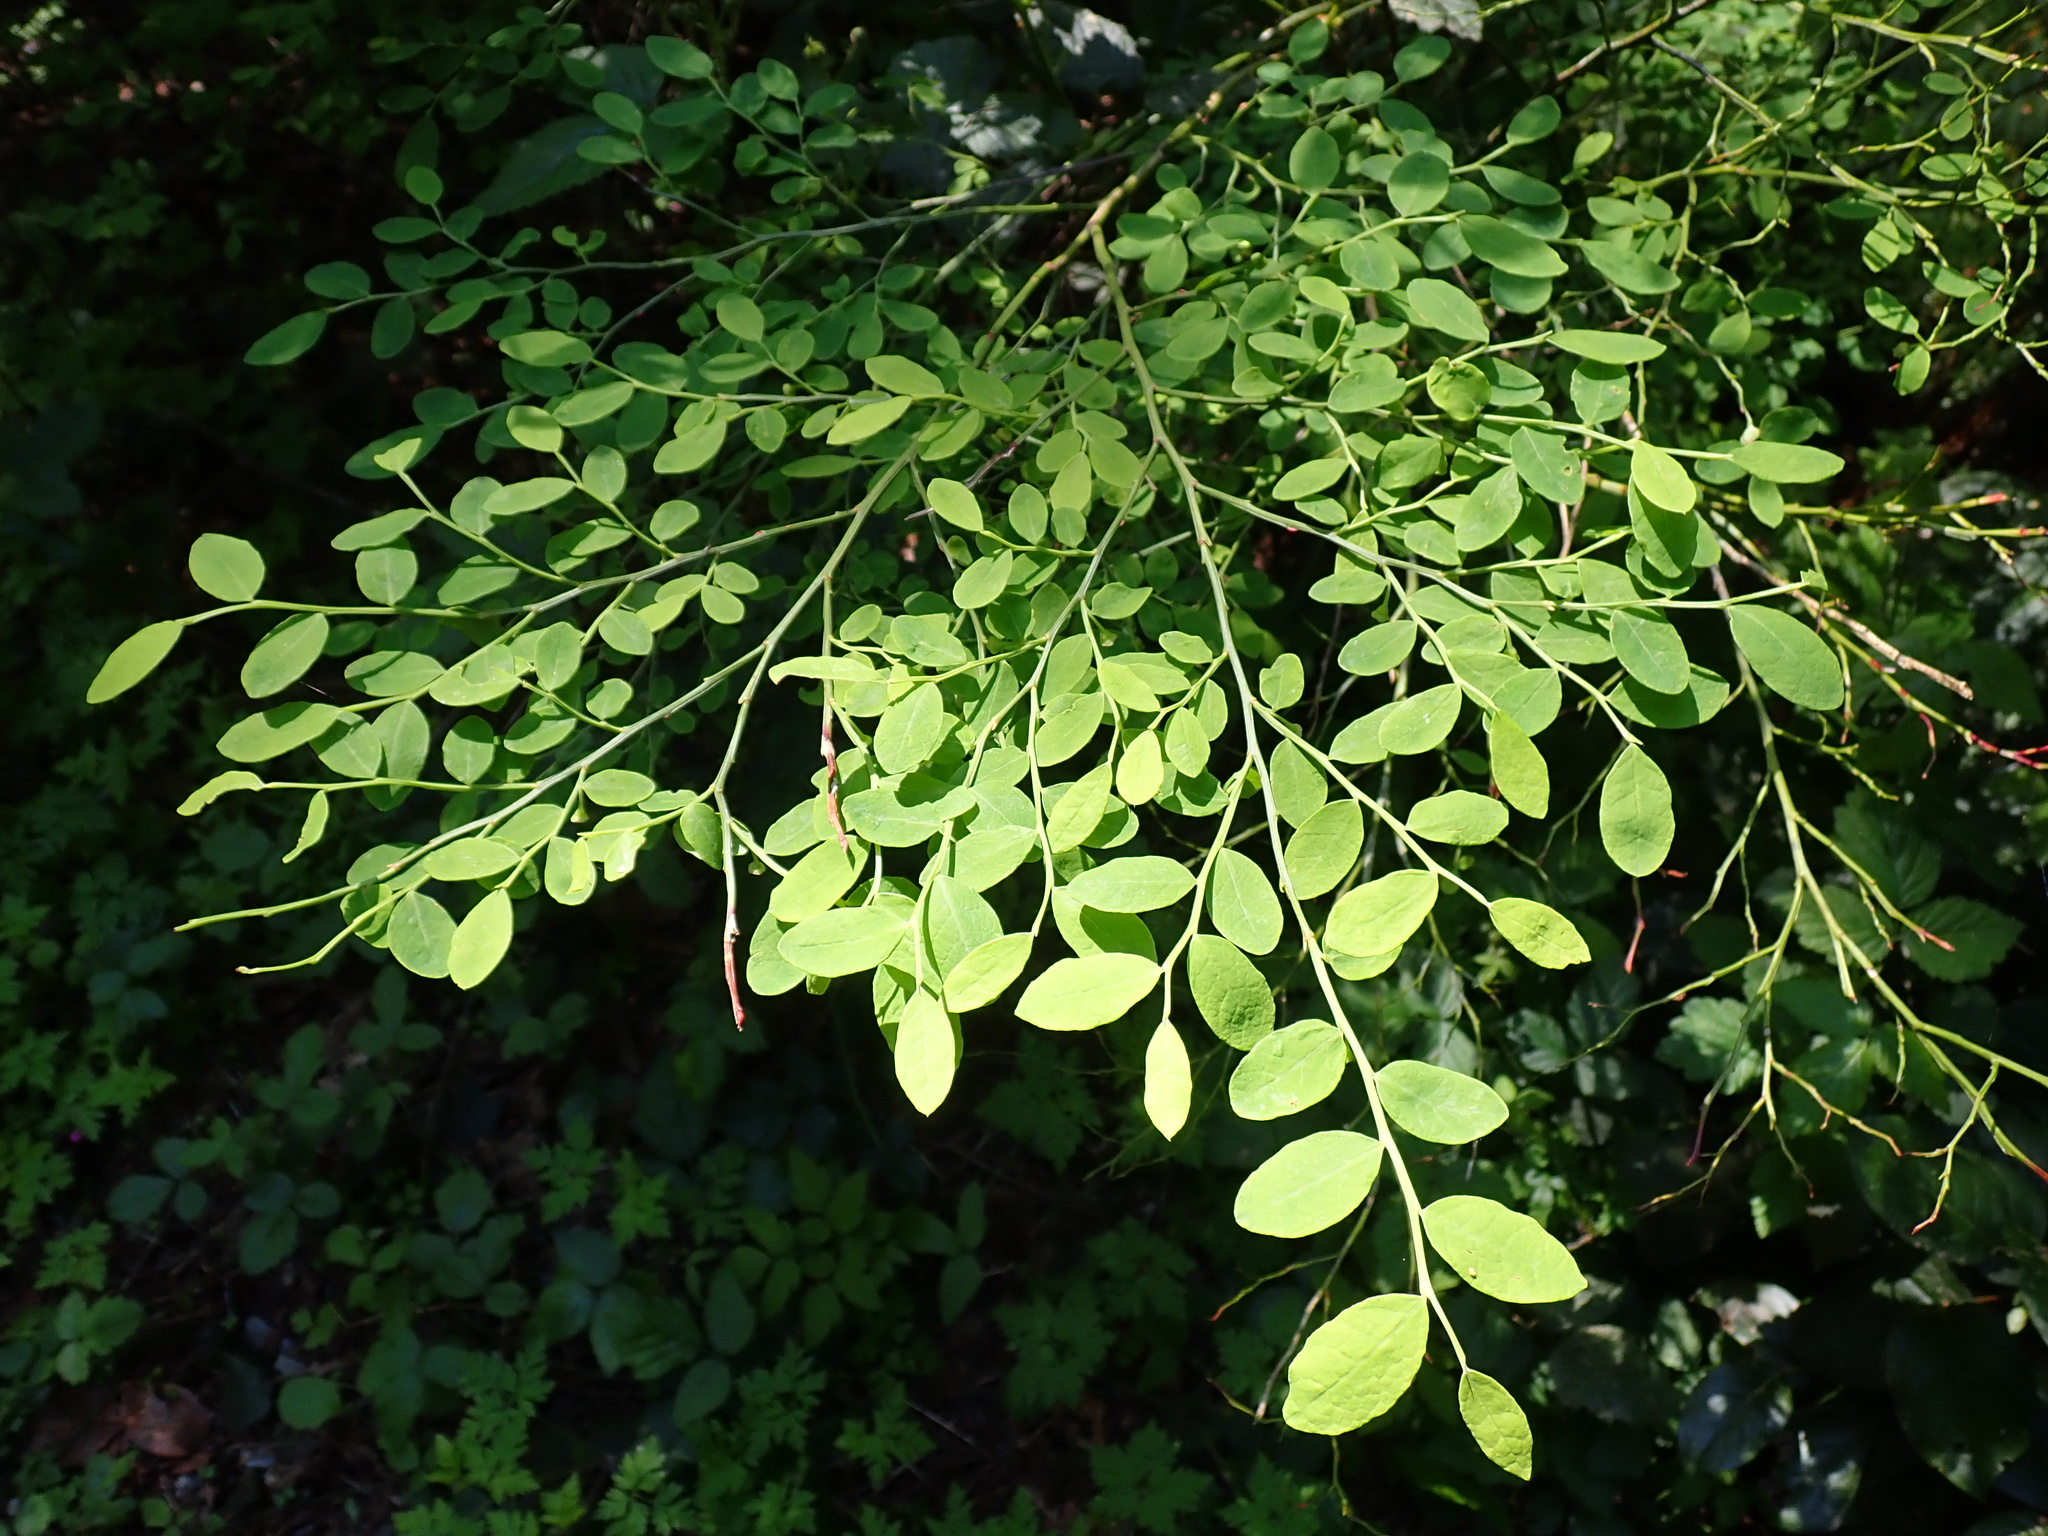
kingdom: Plantae
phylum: Tracheophyta
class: Magnoliopsida
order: Ericales
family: Ericaceae
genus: Vaccinium
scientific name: Vaccinium parvifolium
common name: Red-huckleberry
